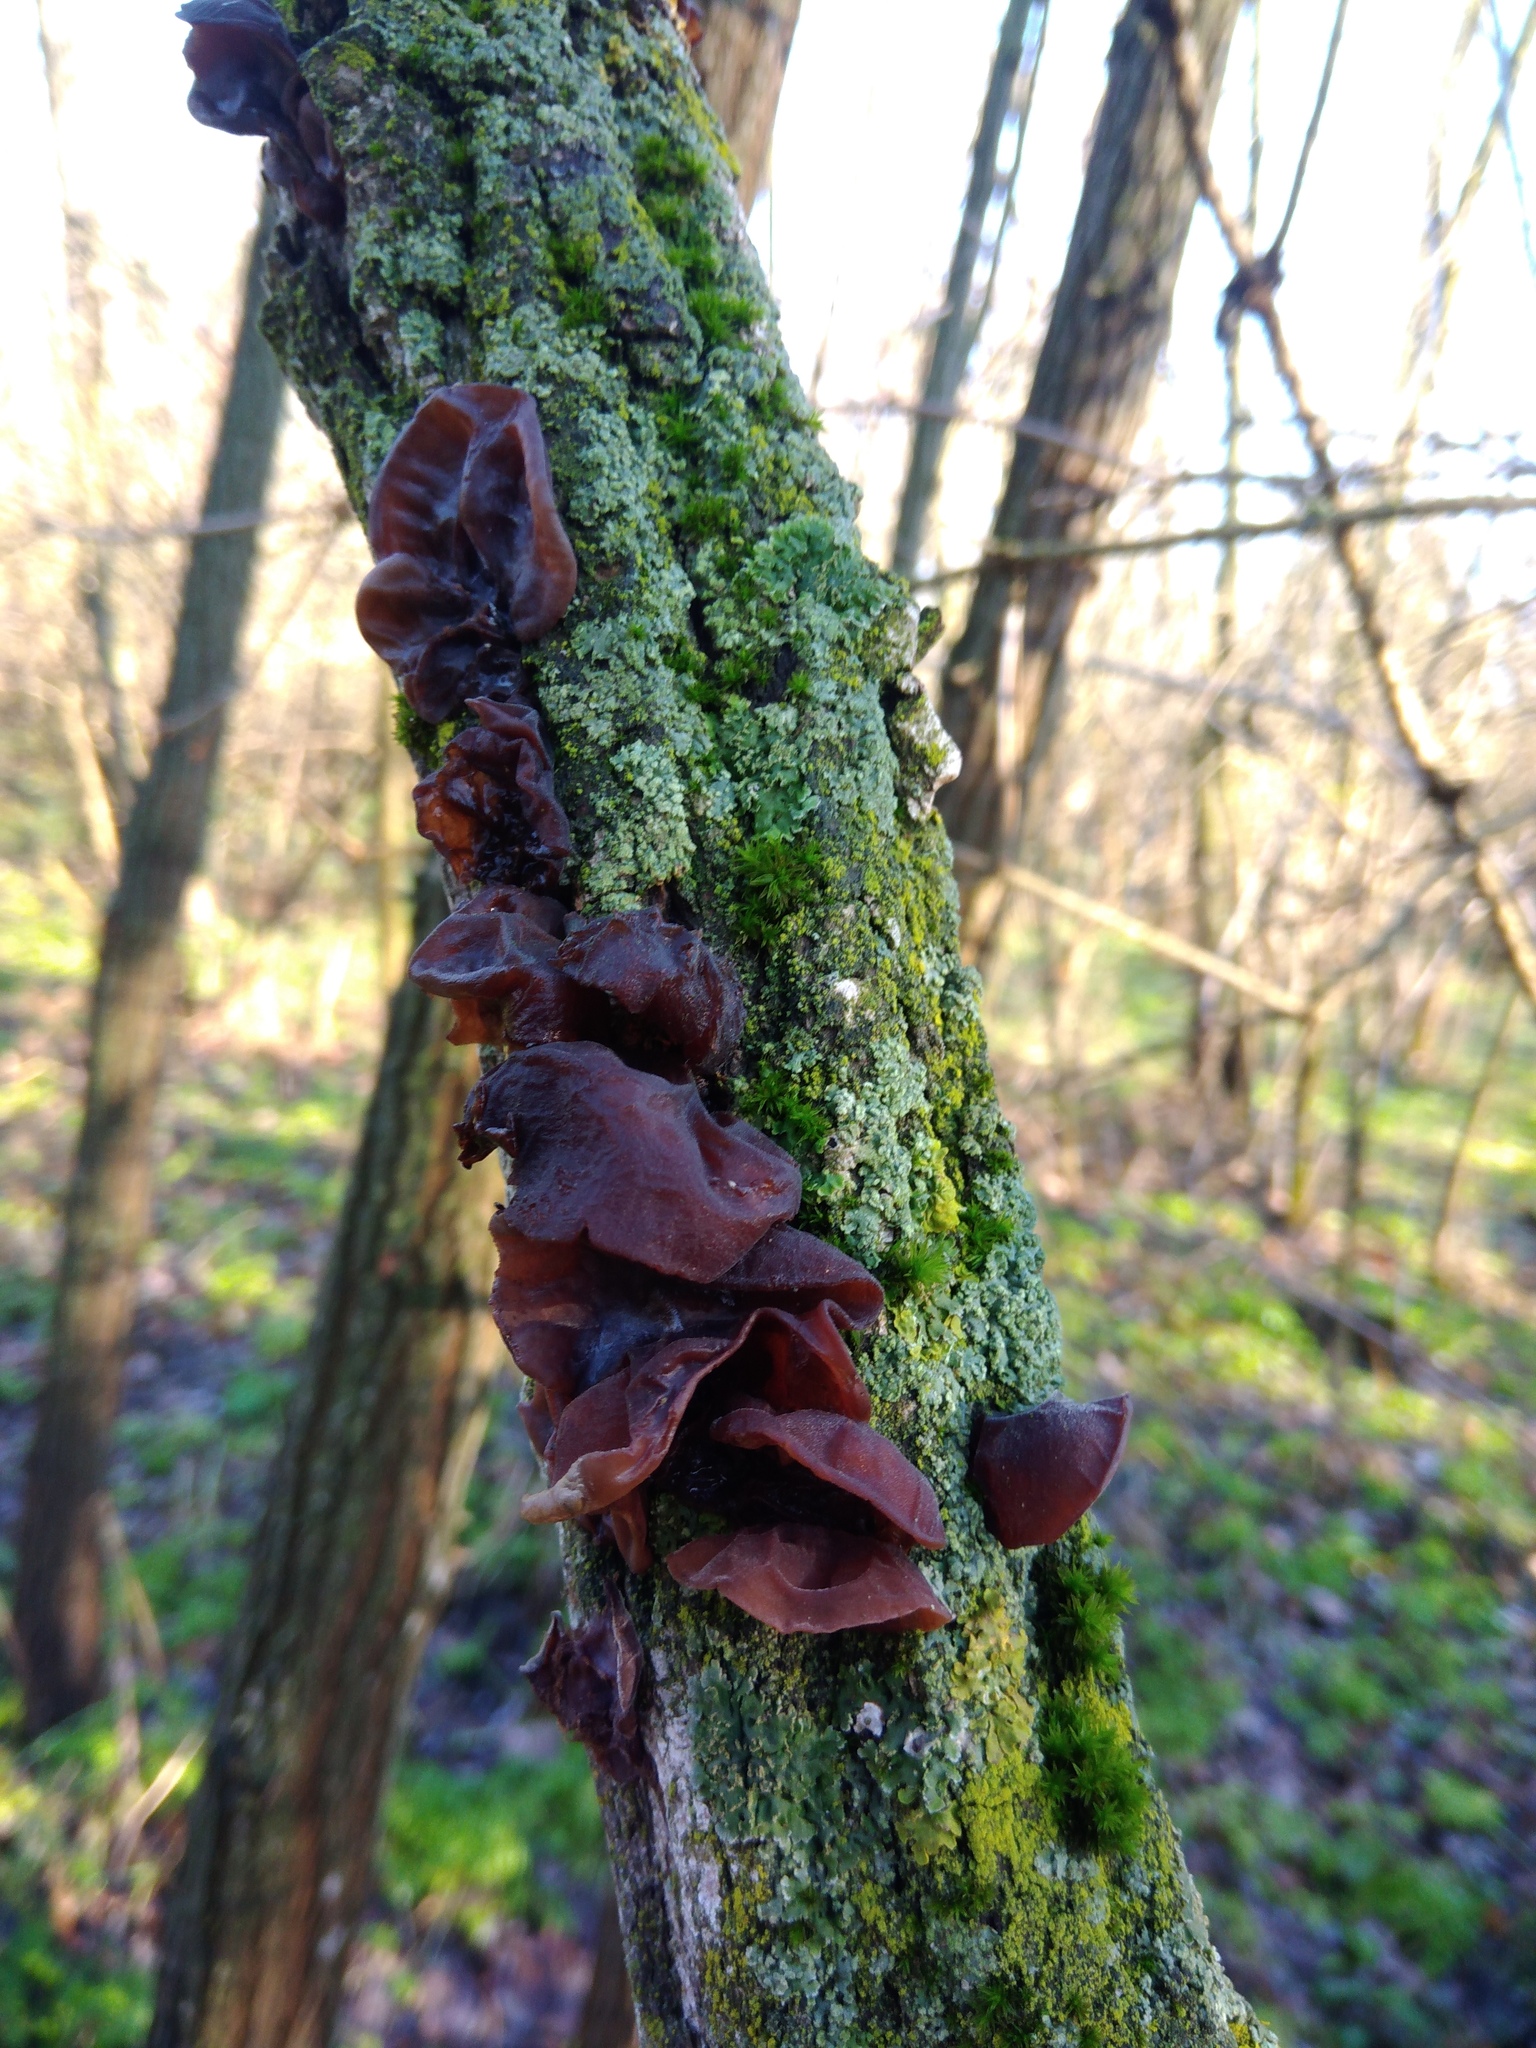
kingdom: Fungi
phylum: Basidiomycota
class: Agaricomycetes
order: Auriculariales
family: Auriculariaceae
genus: Auricularia
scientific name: Auricularia auricula-judae
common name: Jelly ear
